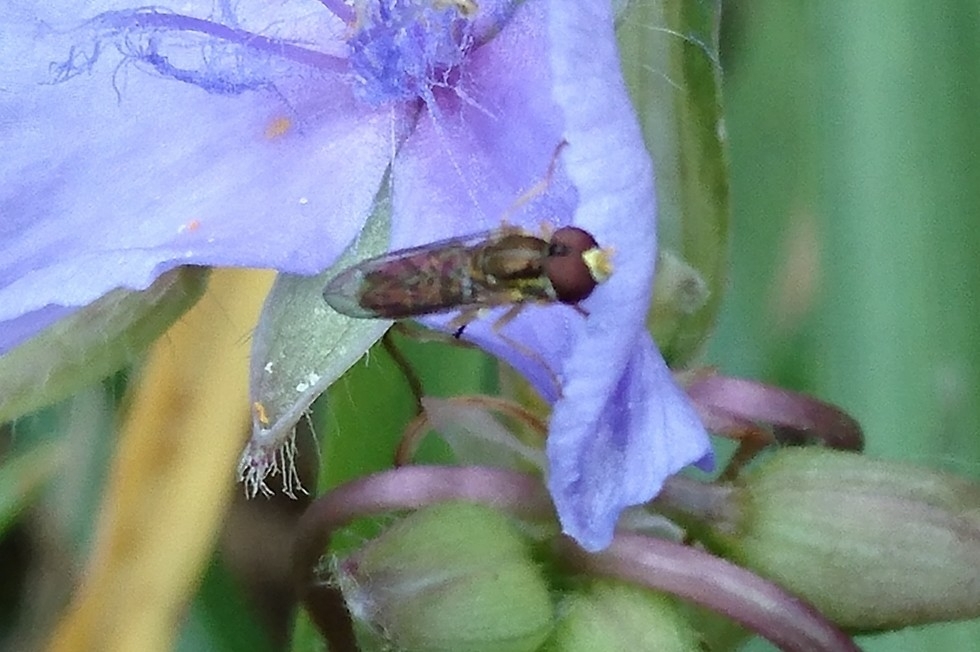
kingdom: Animalia
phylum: Arthropoda
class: Insecta
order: Diptera
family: Syrphidae
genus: Toxomerus
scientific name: Toxomerus
